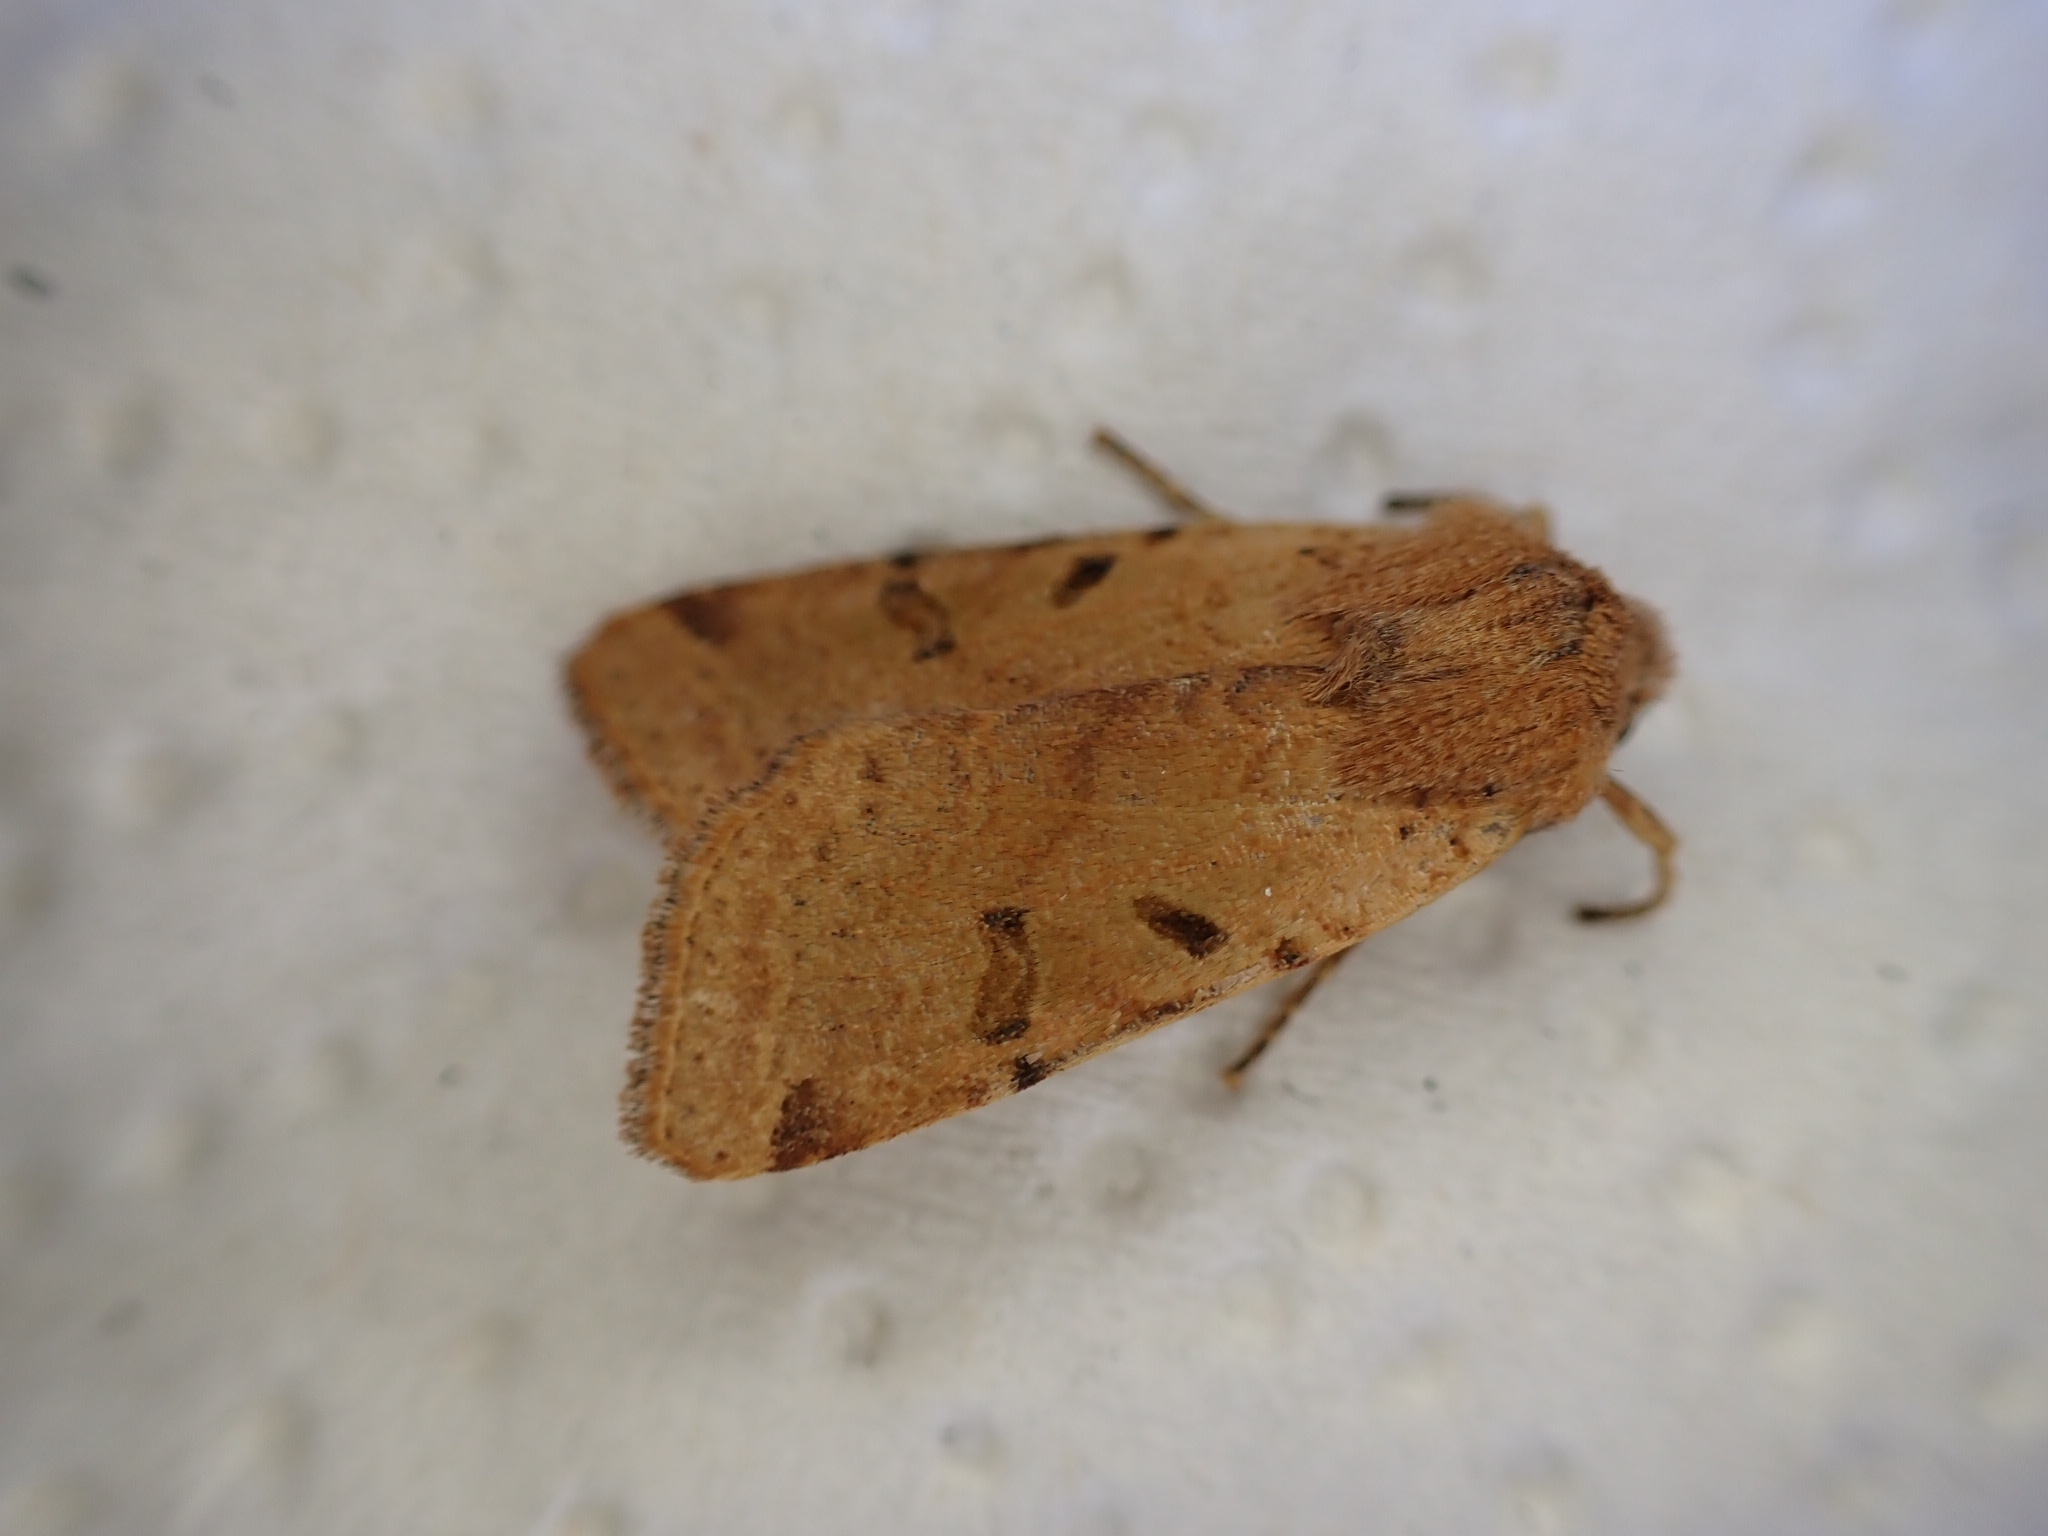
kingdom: Animalia
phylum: Arthropoda
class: Insecta
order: Lepidoptera
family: Noctuidae
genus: Agrochola
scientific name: Agrochola lychnidis
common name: Beaded chestnut
